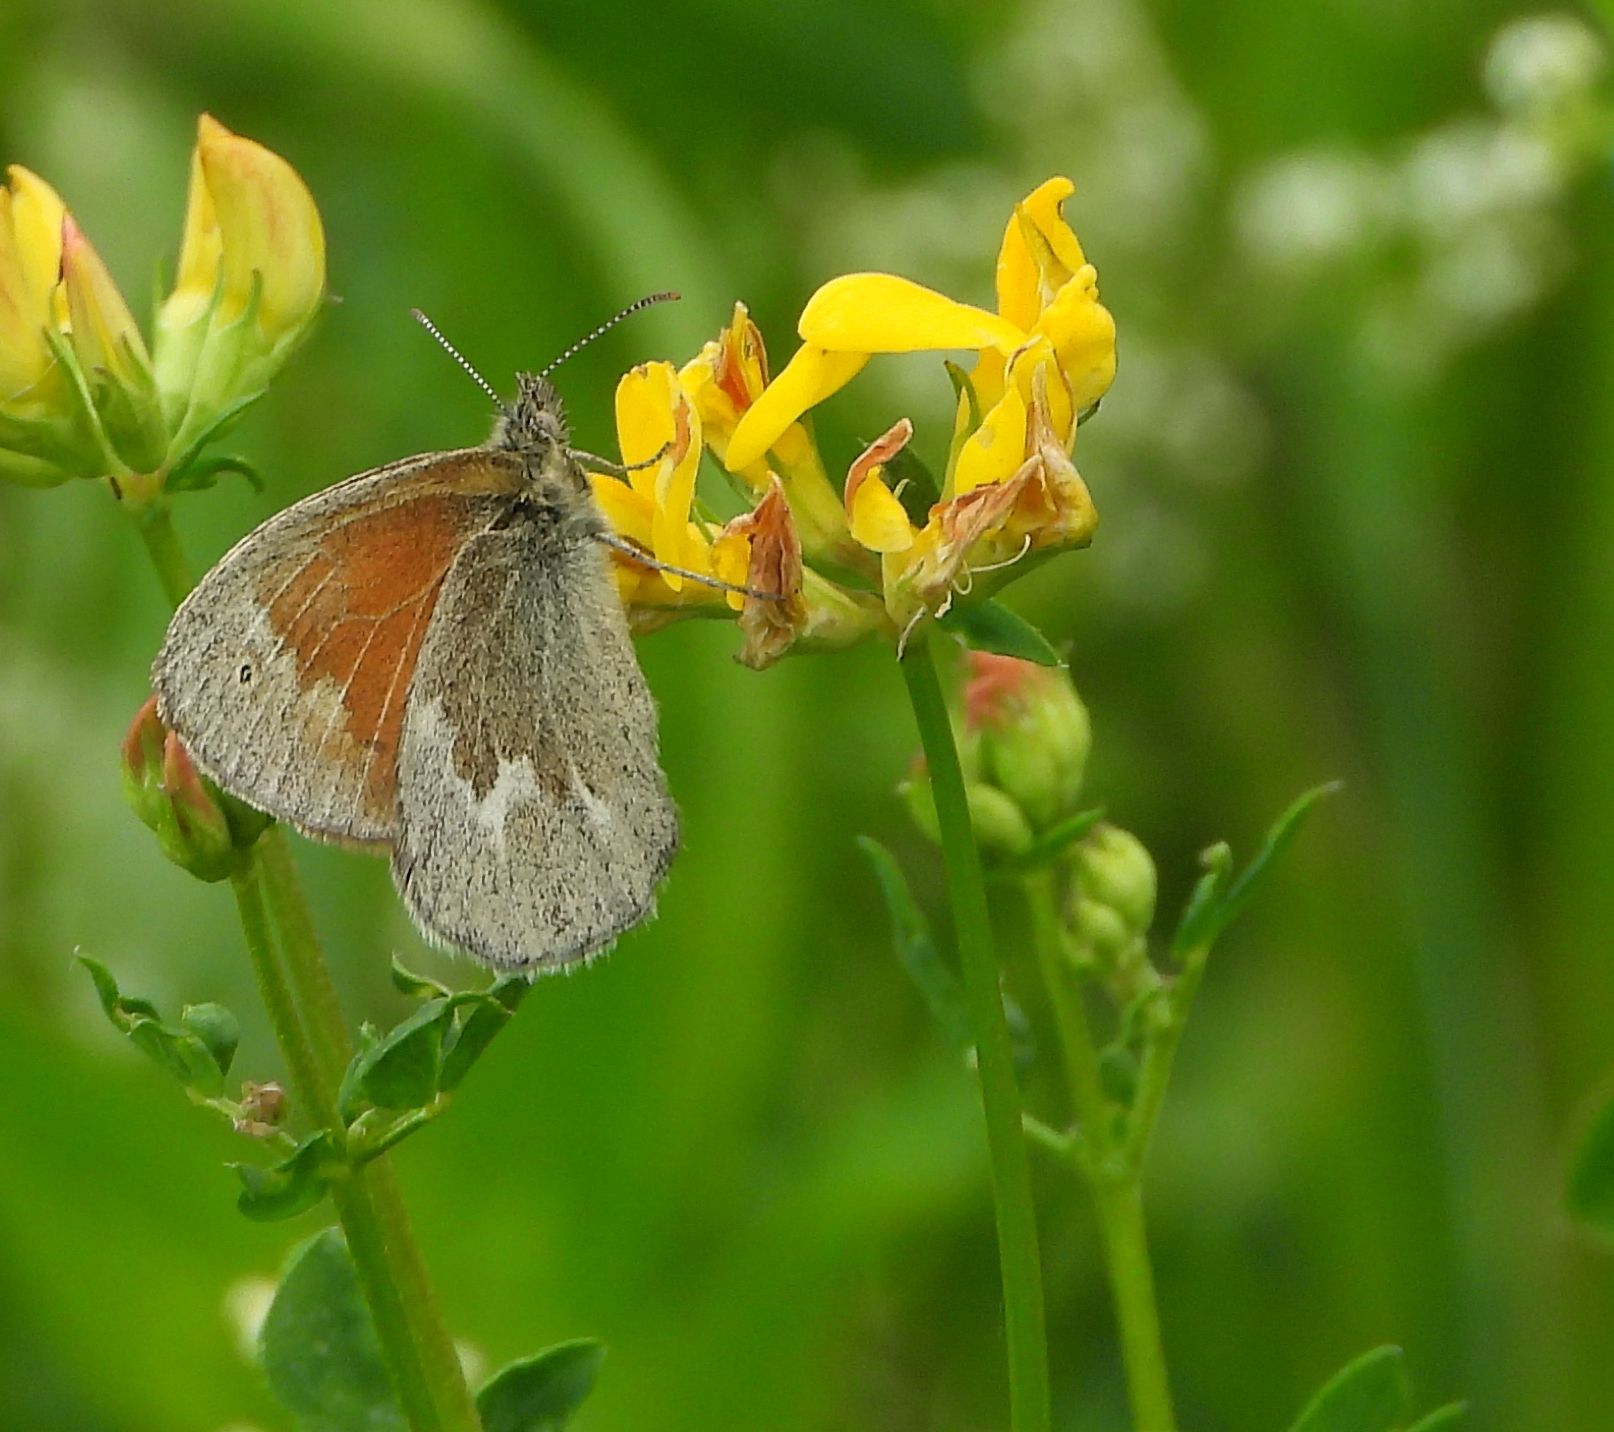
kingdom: Animalia
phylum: Arthropoda
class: Insecta
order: Lepidoptera
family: Nymphalidae
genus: Coenonympha
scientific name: Coenonympha california
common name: Common ringlet
